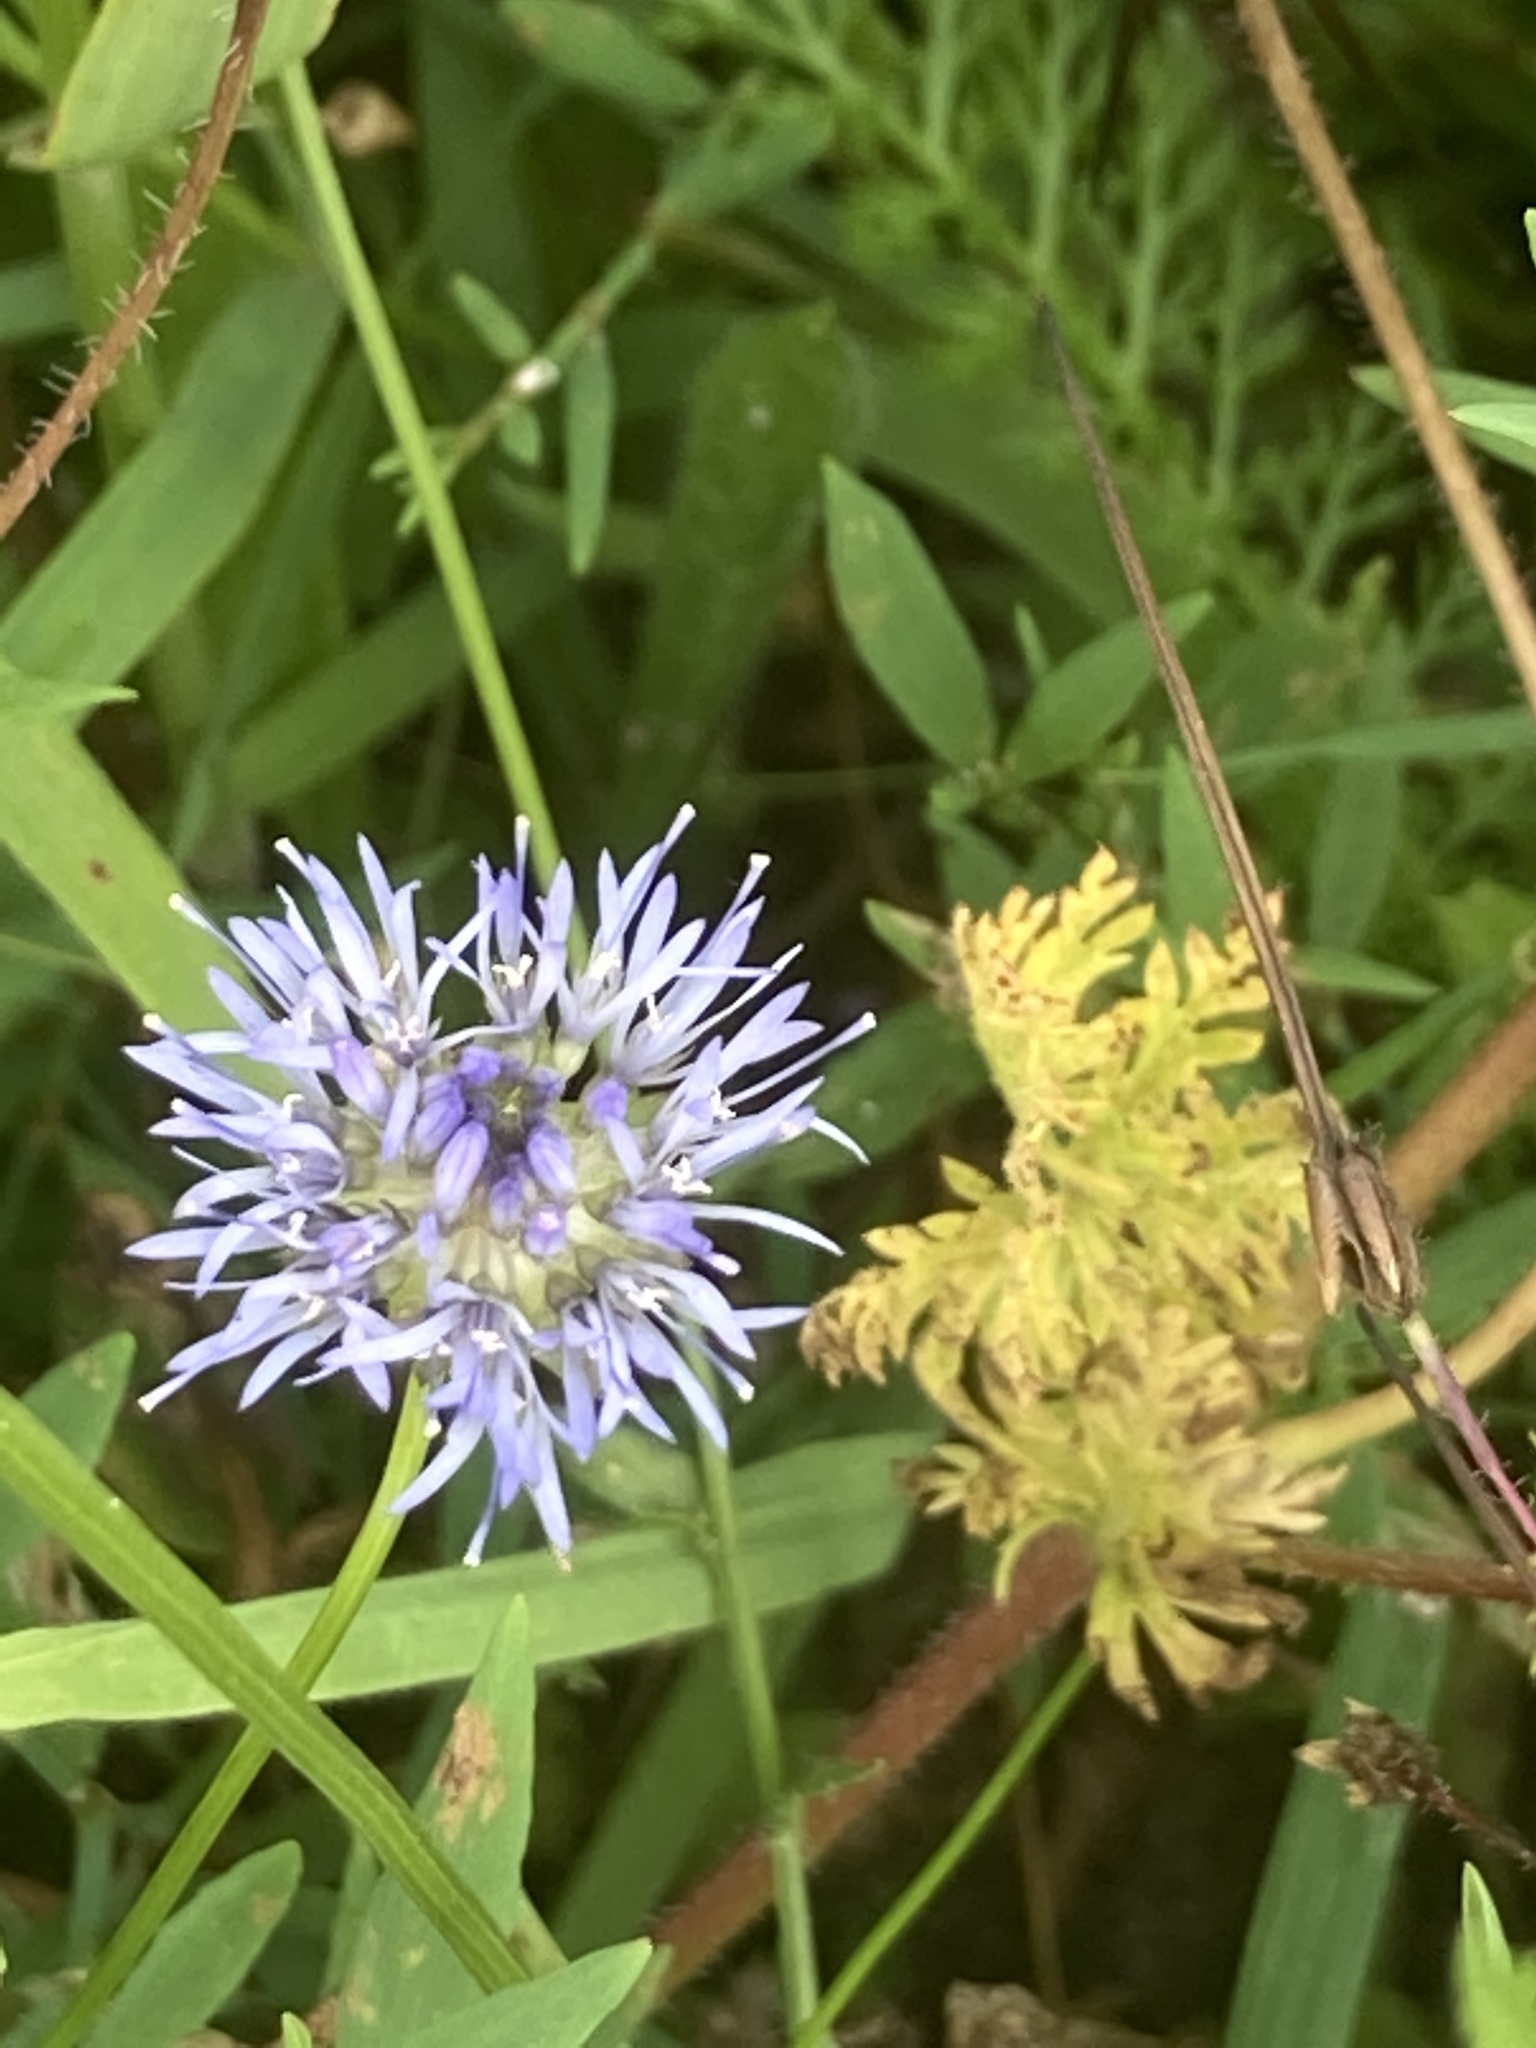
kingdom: Plantae
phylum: Tracheophyta
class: Magnoliopsida
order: Asterales
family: Campanulaceae
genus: Jasione
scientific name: Jasione montana
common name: Sheep's-bit
